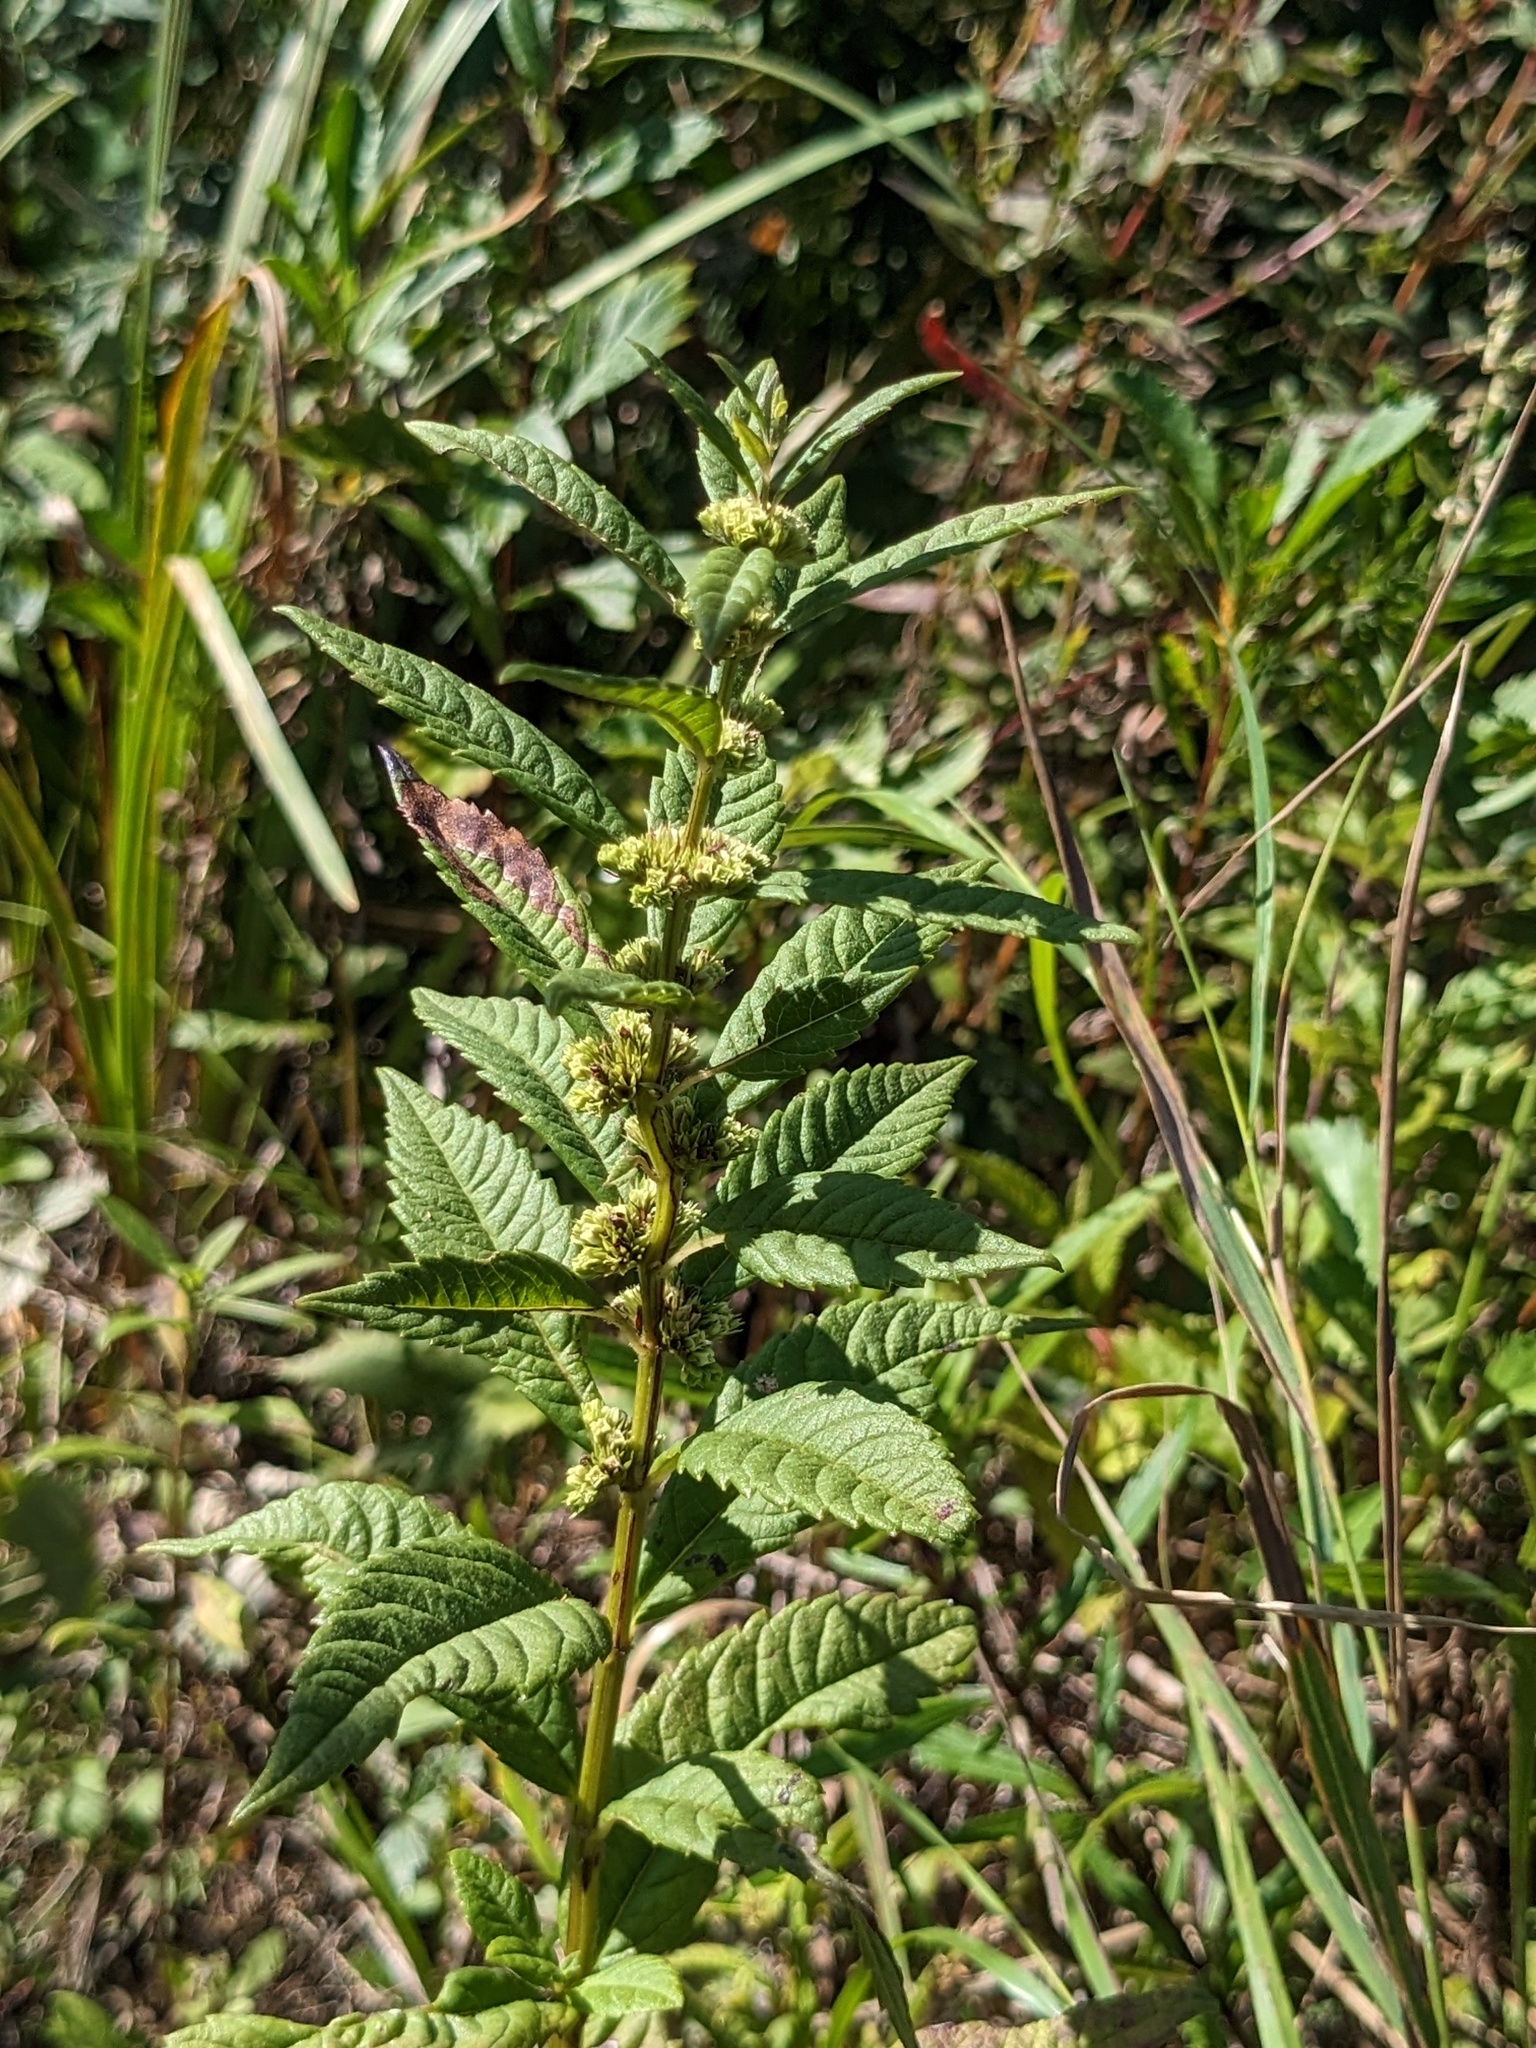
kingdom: Plantae
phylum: Tracheophyta
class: Magnoliopsida
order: Lamiales
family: Lamiaceae
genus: Lycopus
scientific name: Lycopus lucidus
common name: Shiny bugleweed
